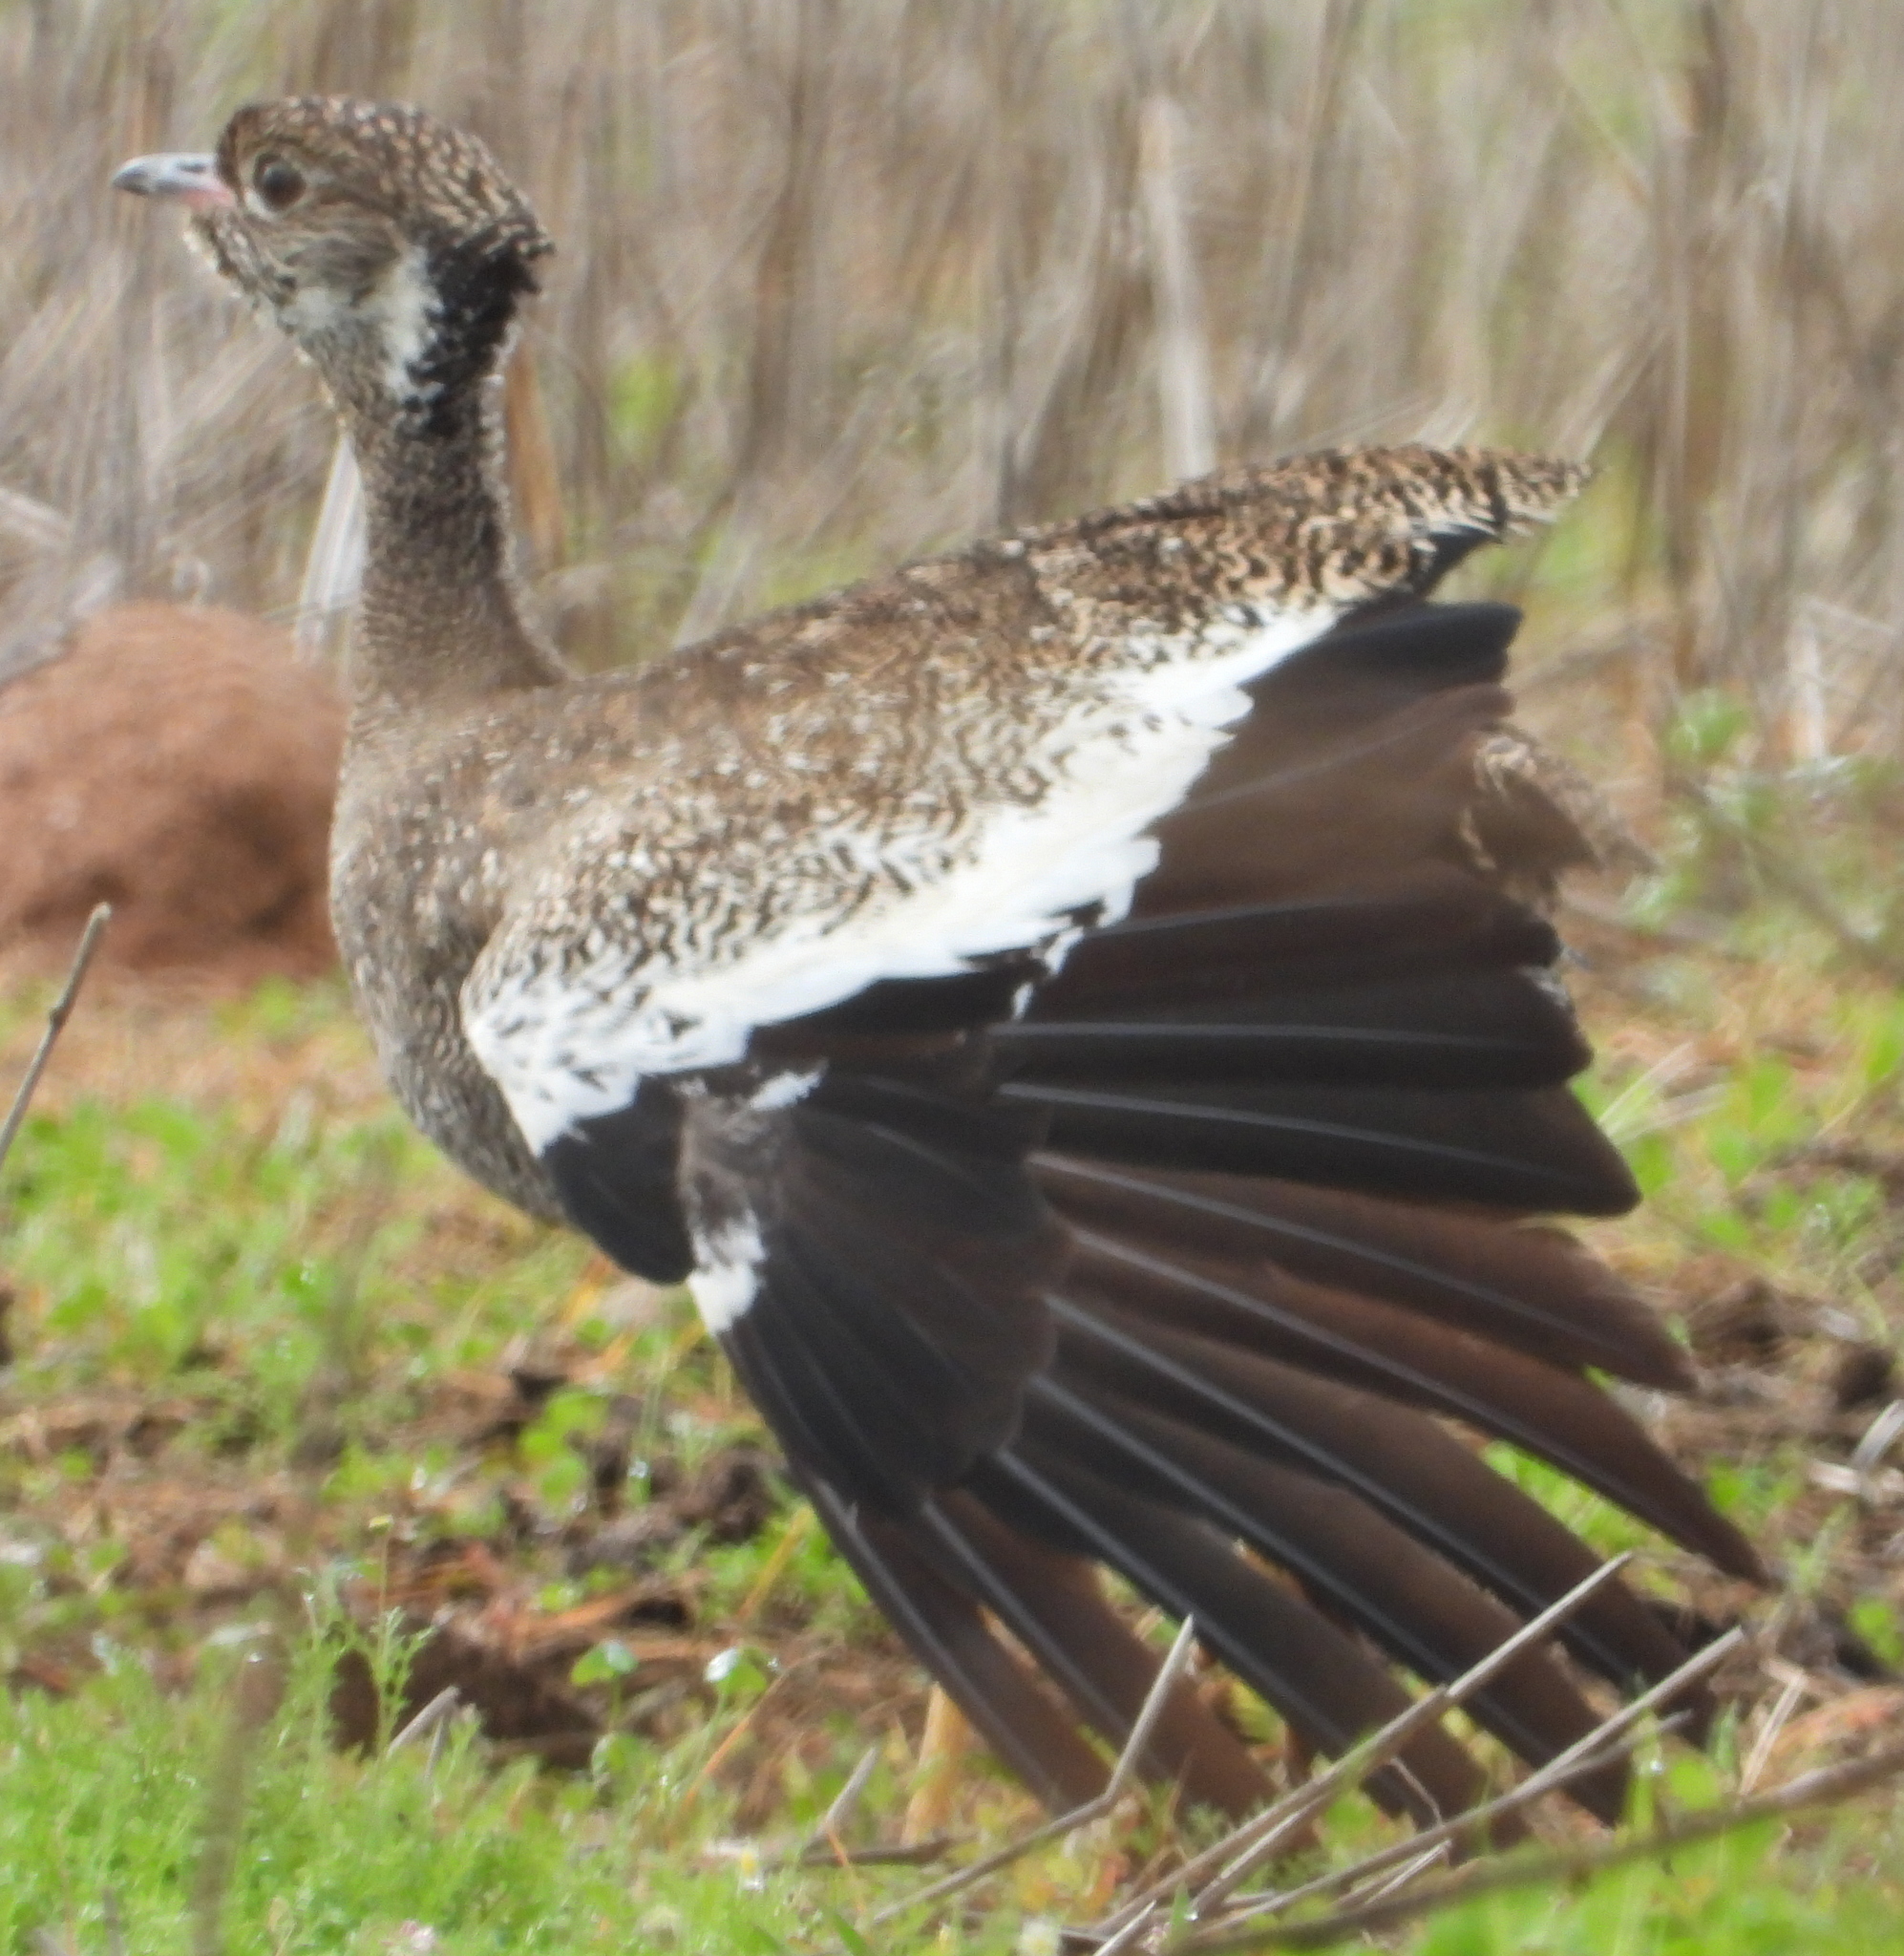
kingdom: Animalia
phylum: Chordata
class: Aves
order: Otidiformes
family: Otididae
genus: Afrotis
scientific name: Afrotis afra
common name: Southern black korhaan
